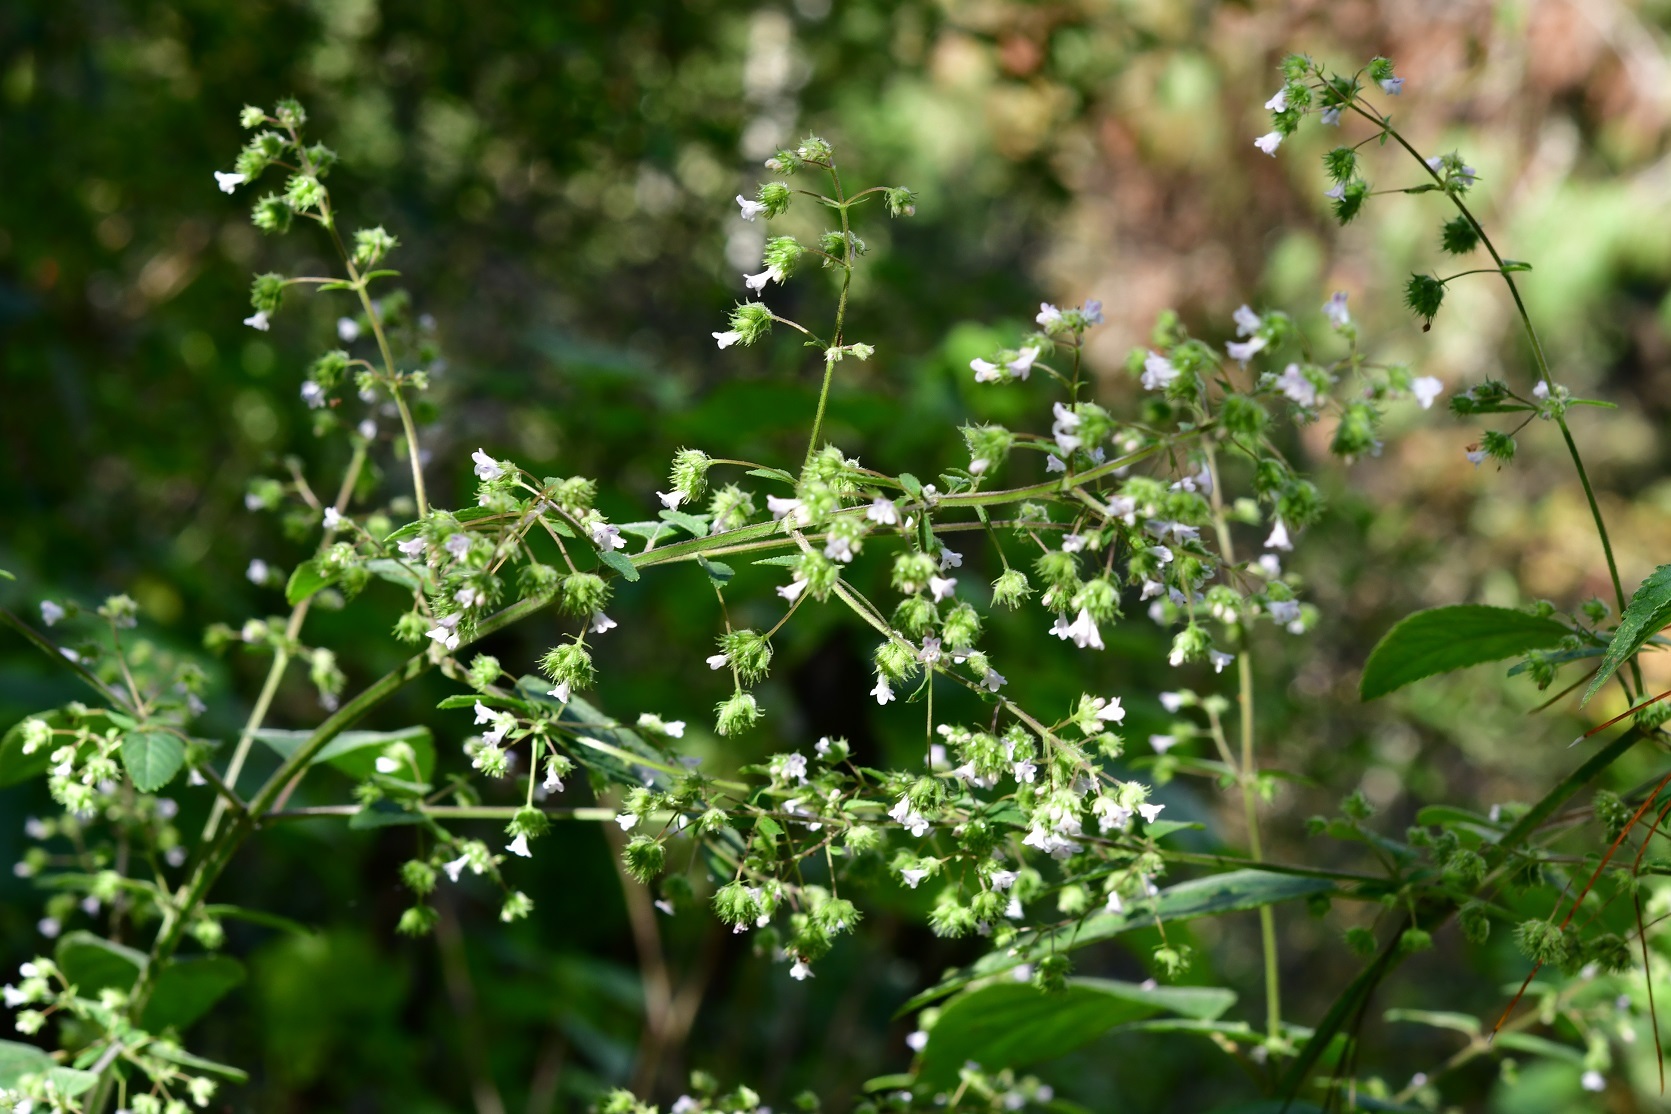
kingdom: Plantae
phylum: Tracheophyta
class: Magnoliopsida
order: Lamiales
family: Lamiaceae
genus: Mesosphaerum
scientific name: Mesosphaerum urticoides
